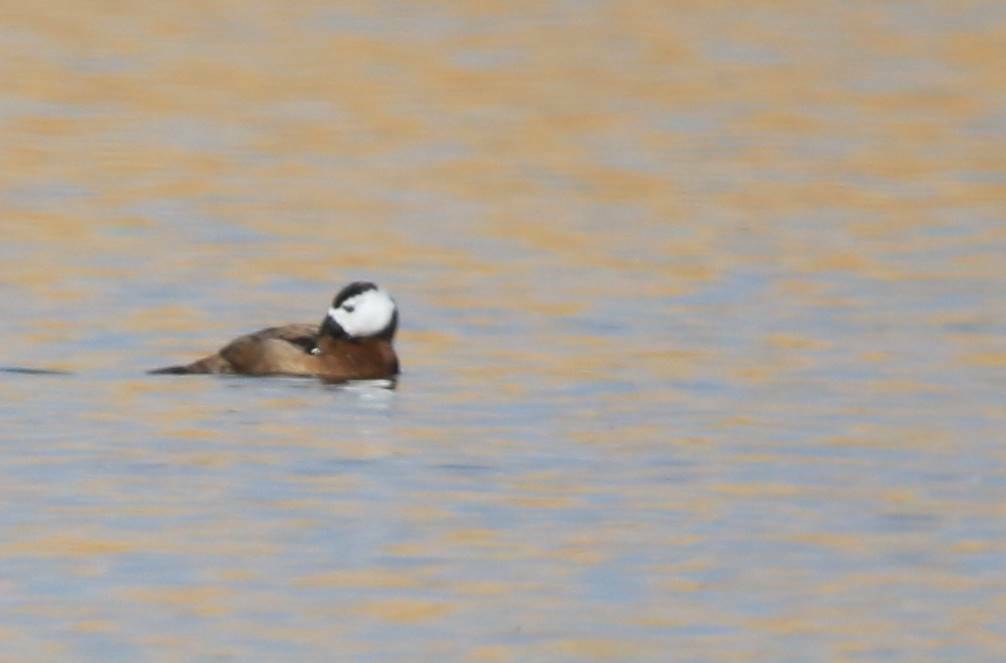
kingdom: Animalia
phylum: Chordata
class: Aves
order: Anseriformes
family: Anatidae
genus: Oxyura
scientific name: Oxyura leucocephala
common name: White-headed duck
